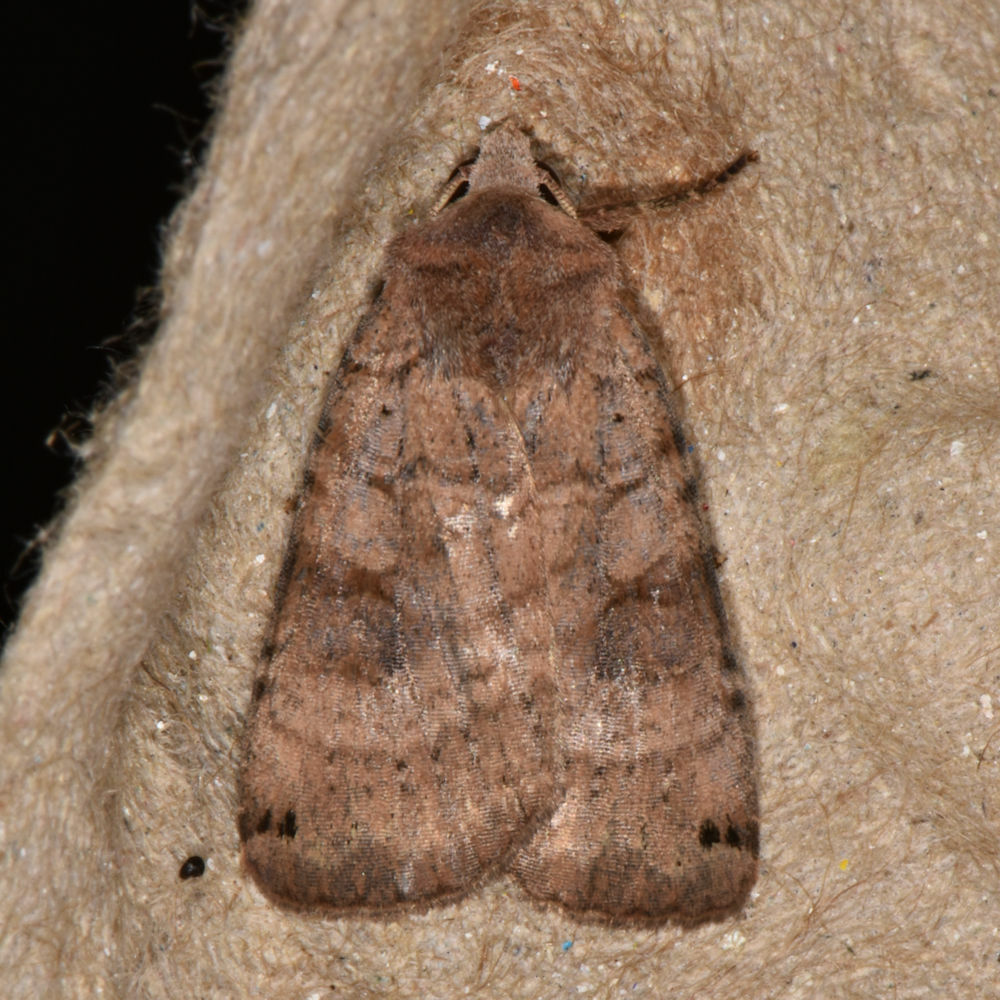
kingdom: Animalia
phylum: Arthropoda
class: Insecta
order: Lepidoptera
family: Noctuidae
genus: Xestia
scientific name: Xestia smithii
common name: Smith's dart
